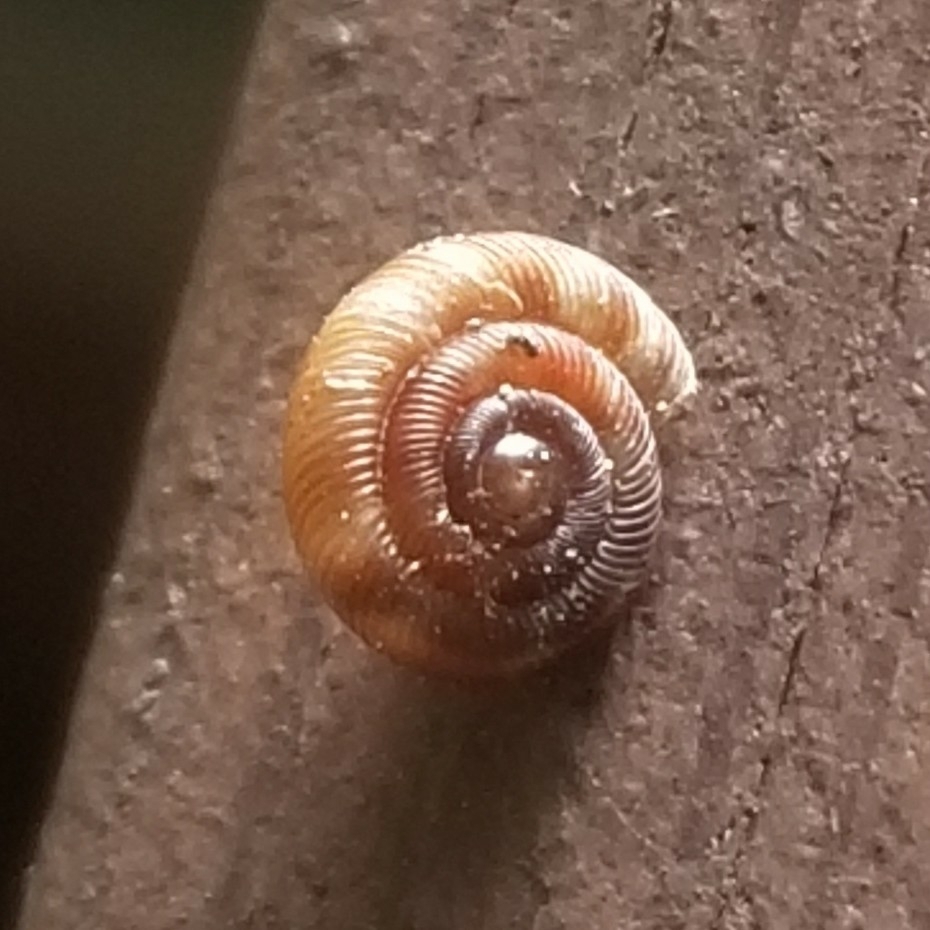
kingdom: Animalia
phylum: Mollusca
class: Gastropoda
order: Stylommatophora
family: Discidae
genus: Discus
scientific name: Discus rotundatus
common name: Rounded snail
